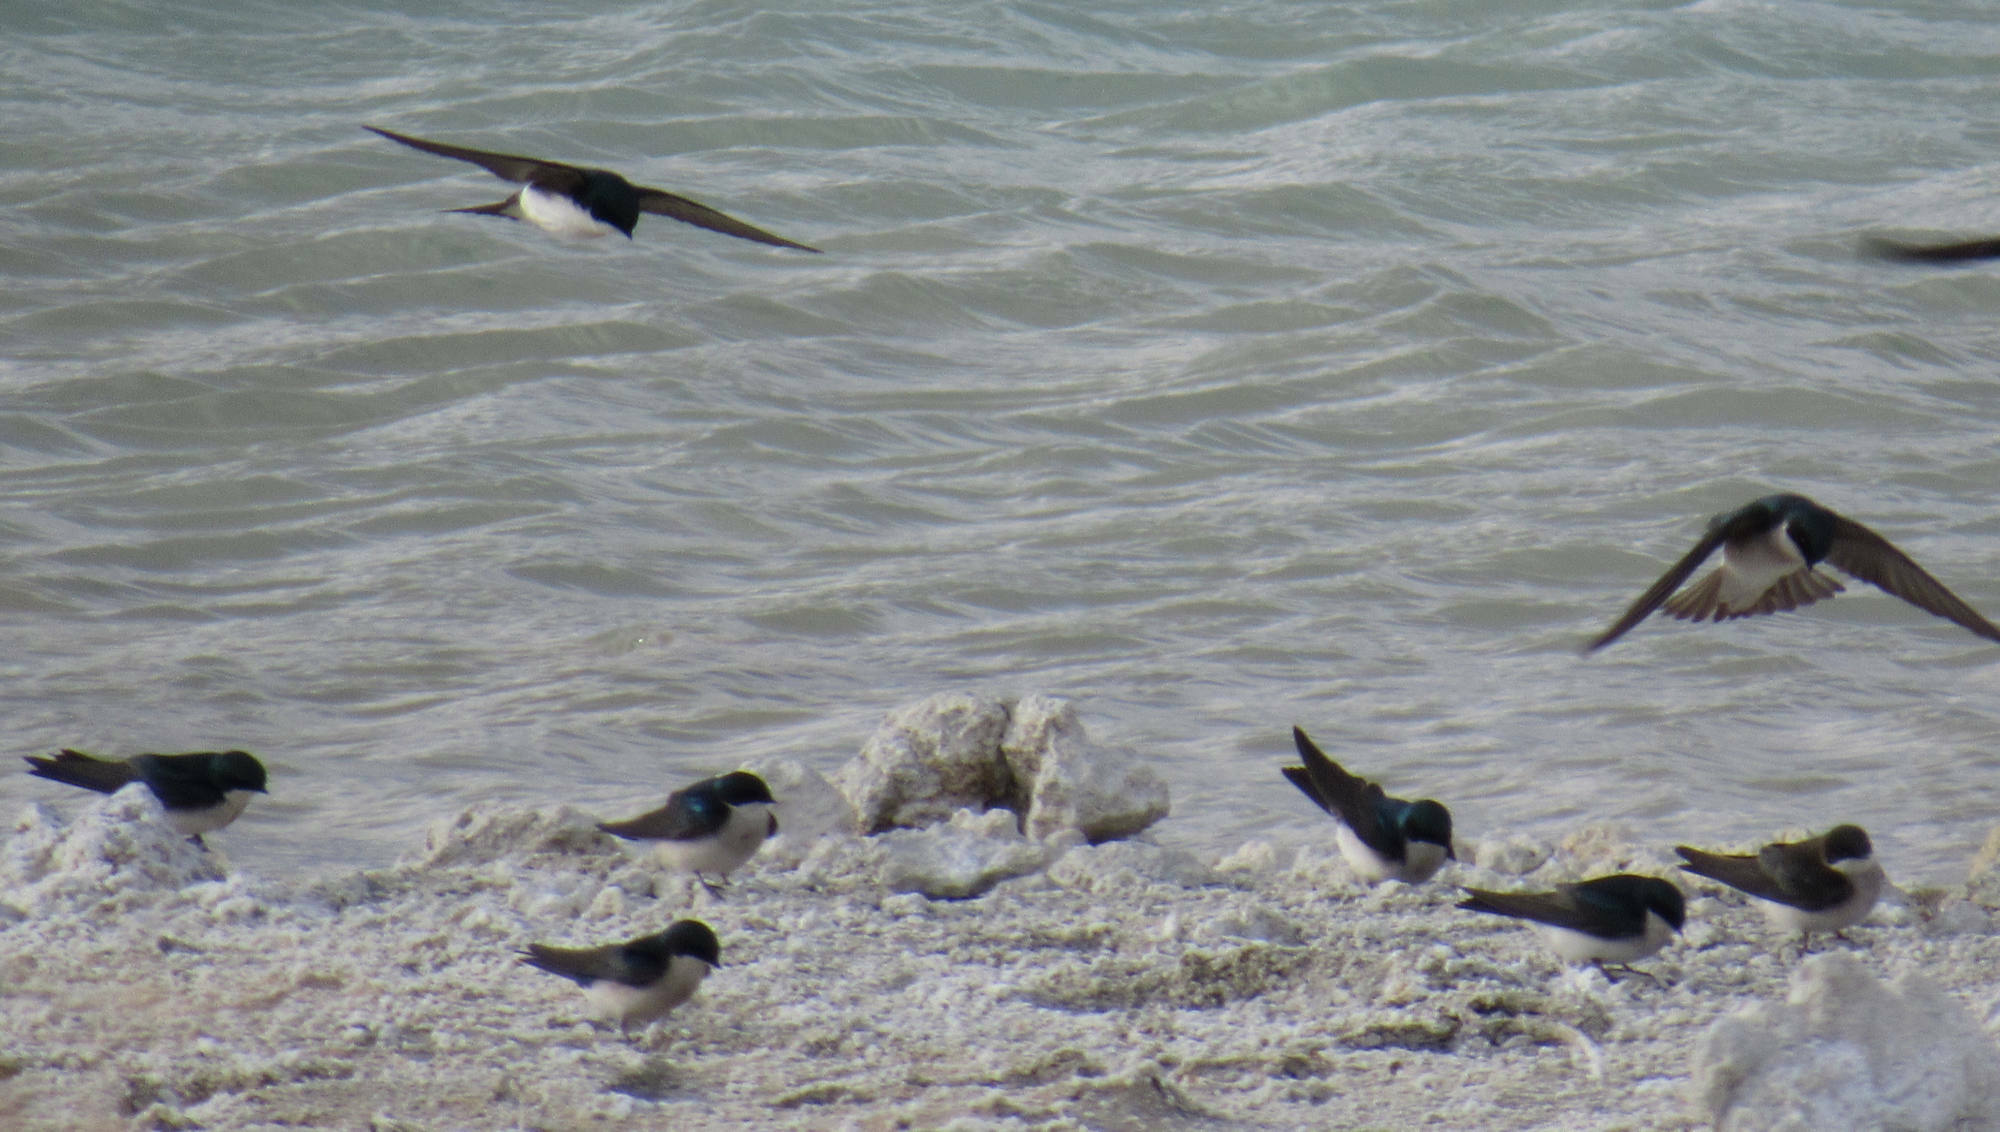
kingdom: Animalia
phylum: Chordata
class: Aves
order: Passeriformes
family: Hirundinidae
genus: Tachycineta
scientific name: Tachycineta bicolor
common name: Tree swallow
